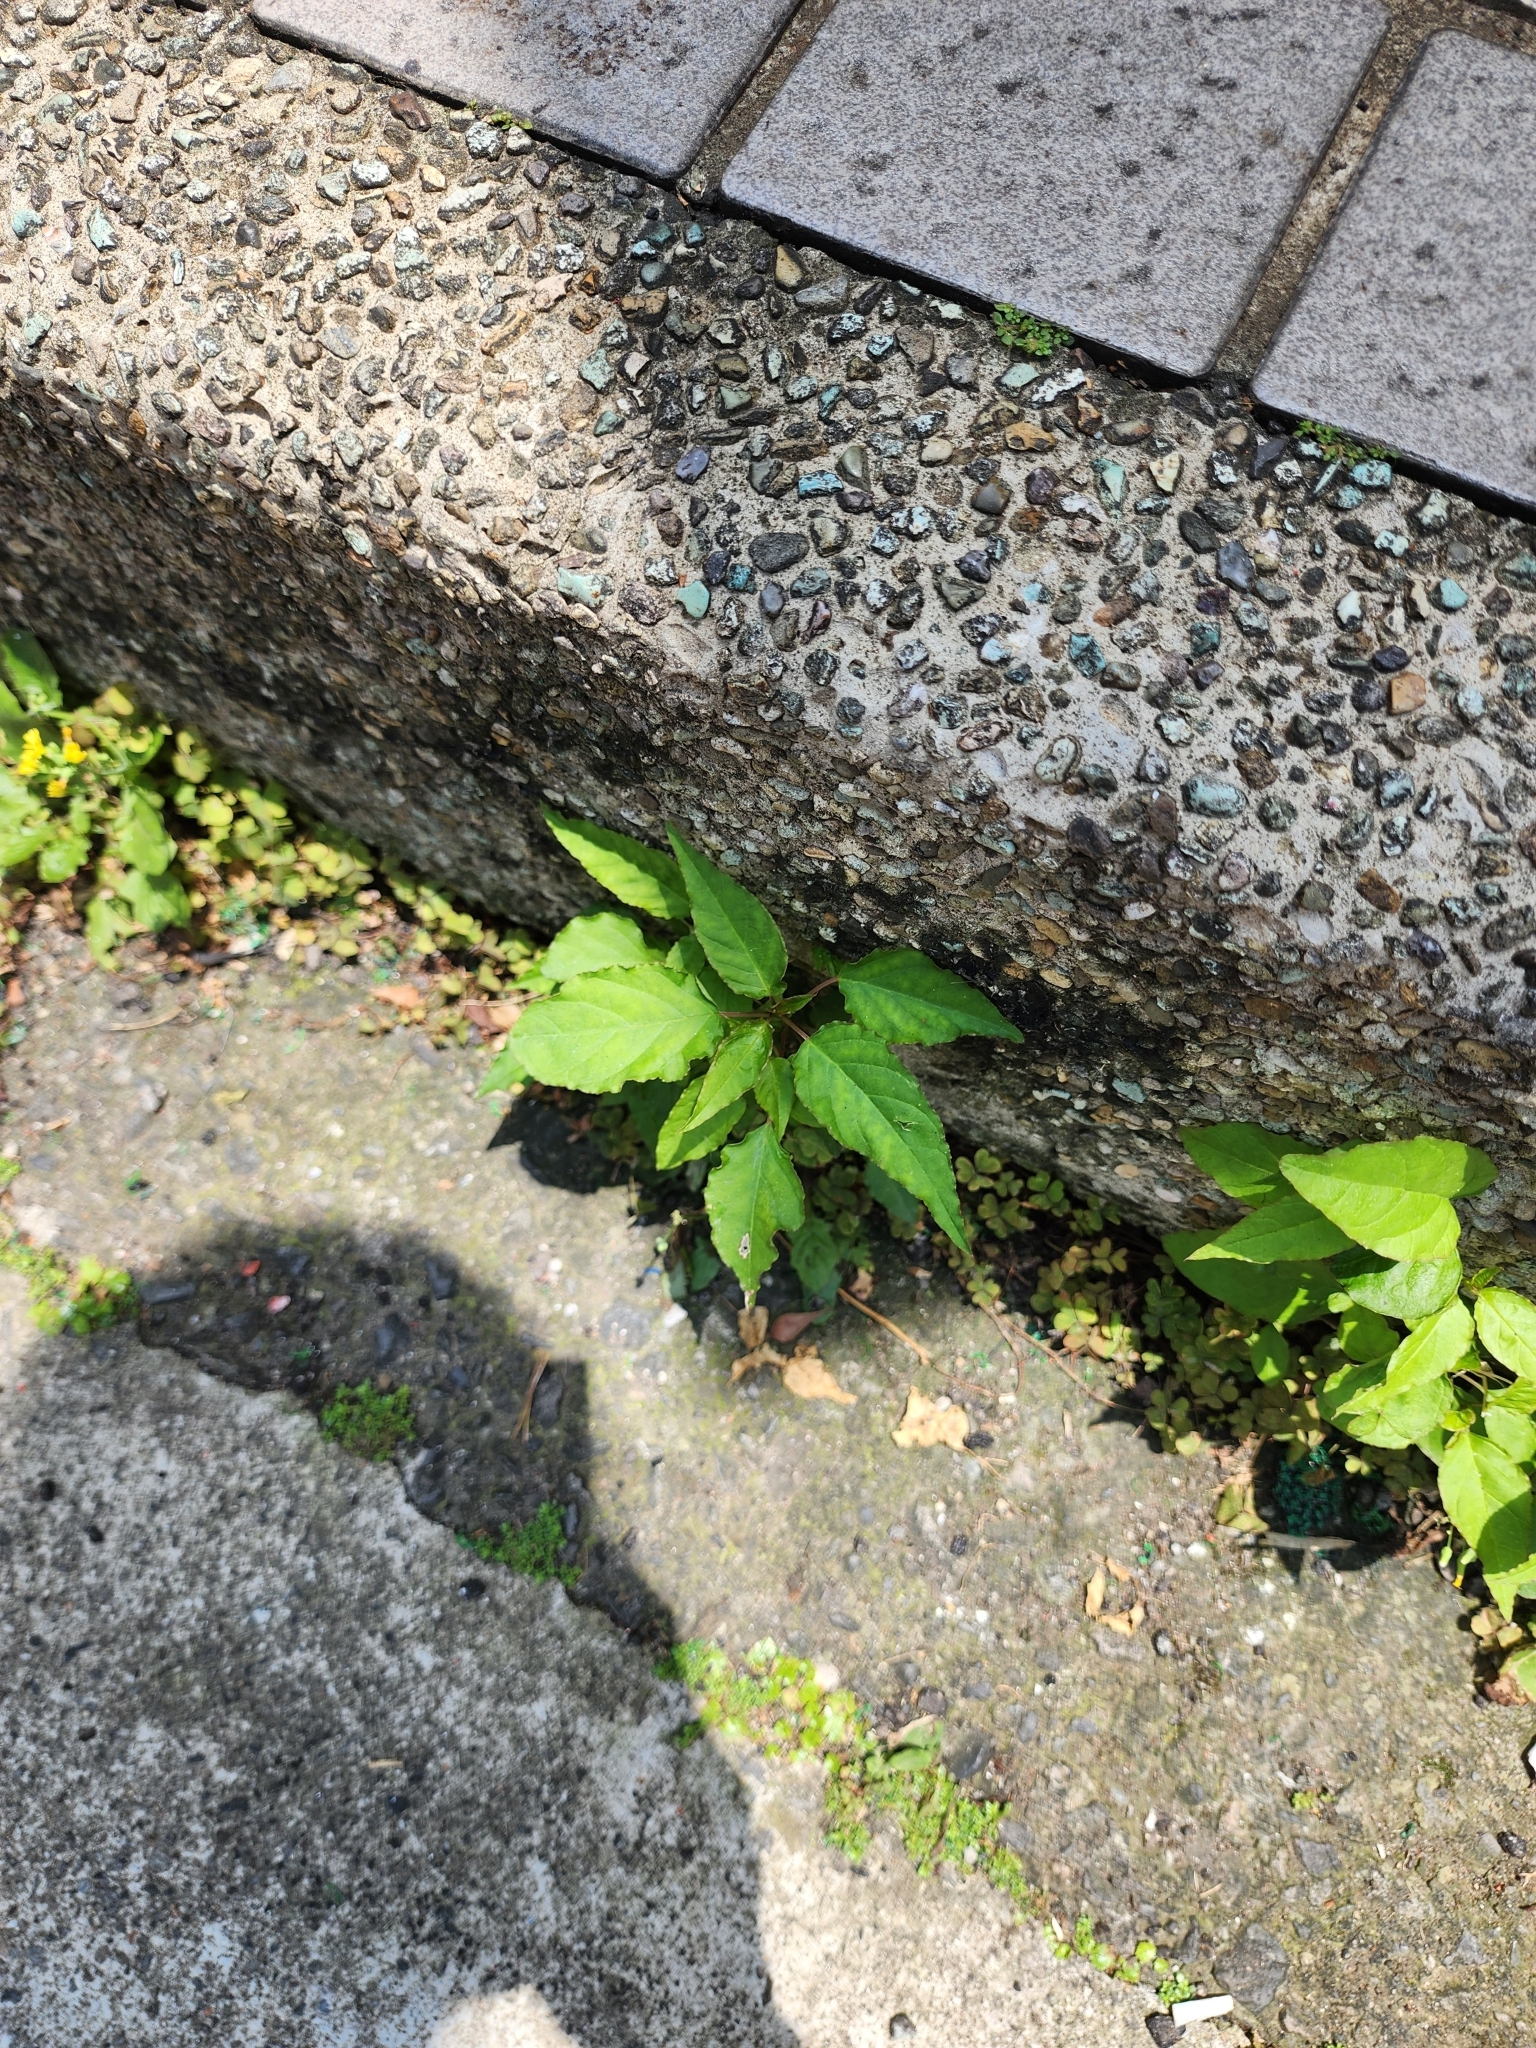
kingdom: Plantae
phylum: Tracheophyta
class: Magnoliopsida
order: Caryophyllales
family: Phytolaccaceae
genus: Rivina
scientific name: Rivina humilis
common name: Rougeplant
